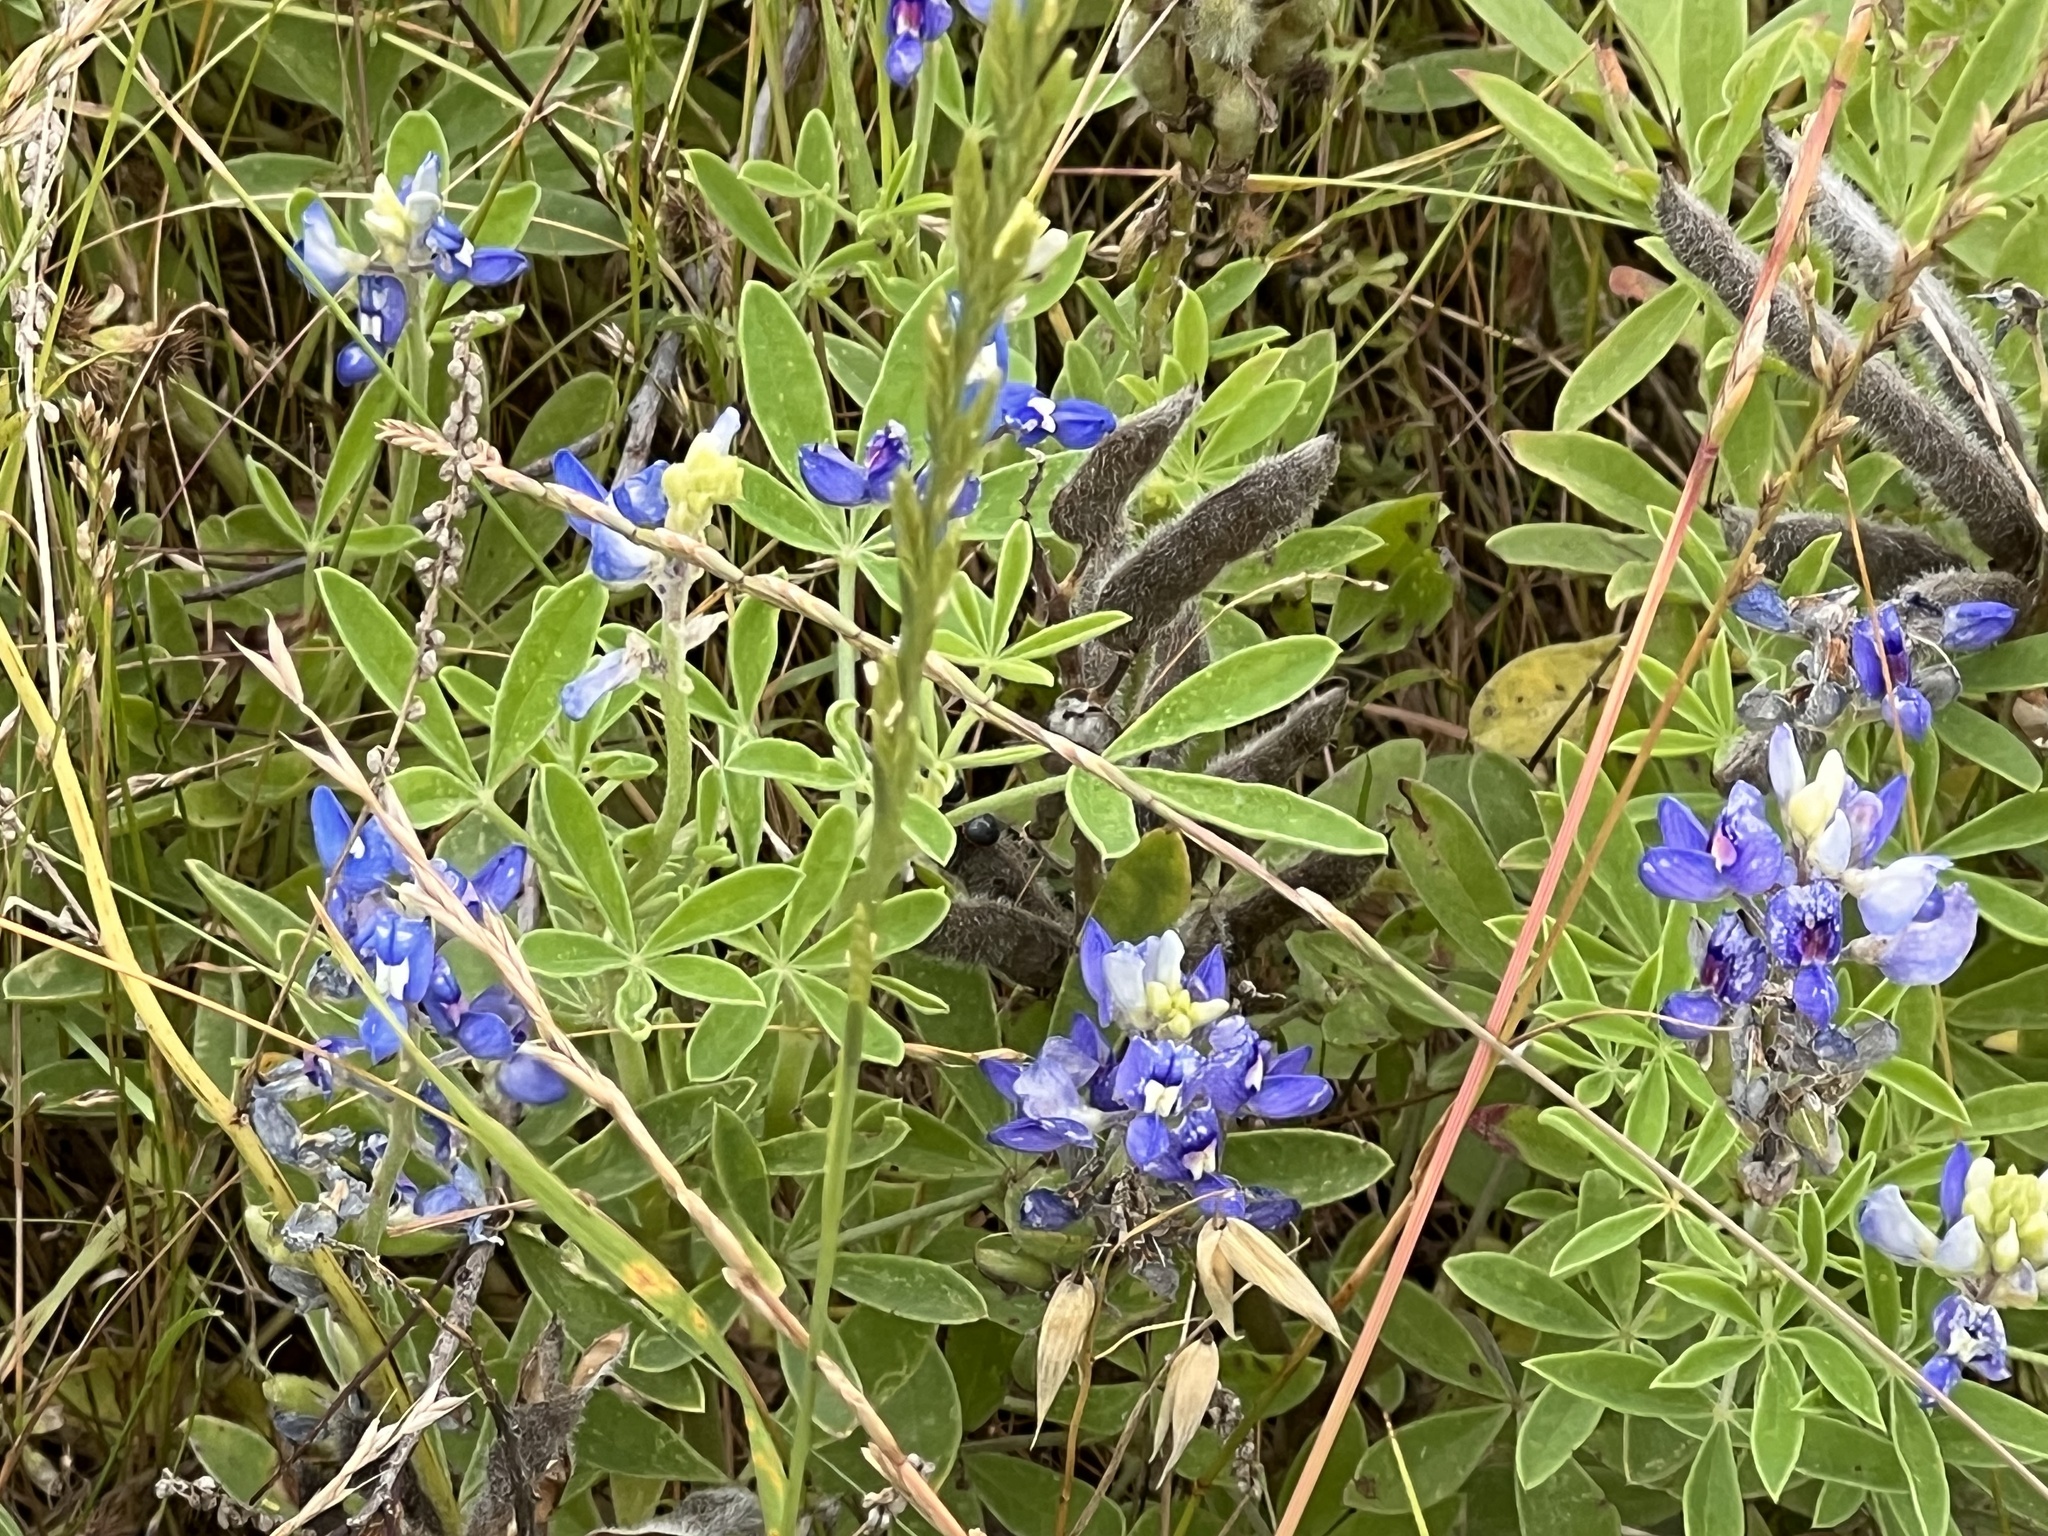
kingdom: Plantae
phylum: Tracheophyta
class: Magnoliopsida
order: Fabales
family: Fabaceae
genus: Lupinus
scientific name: Lupinus texensis
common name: Texas bluebonnet
